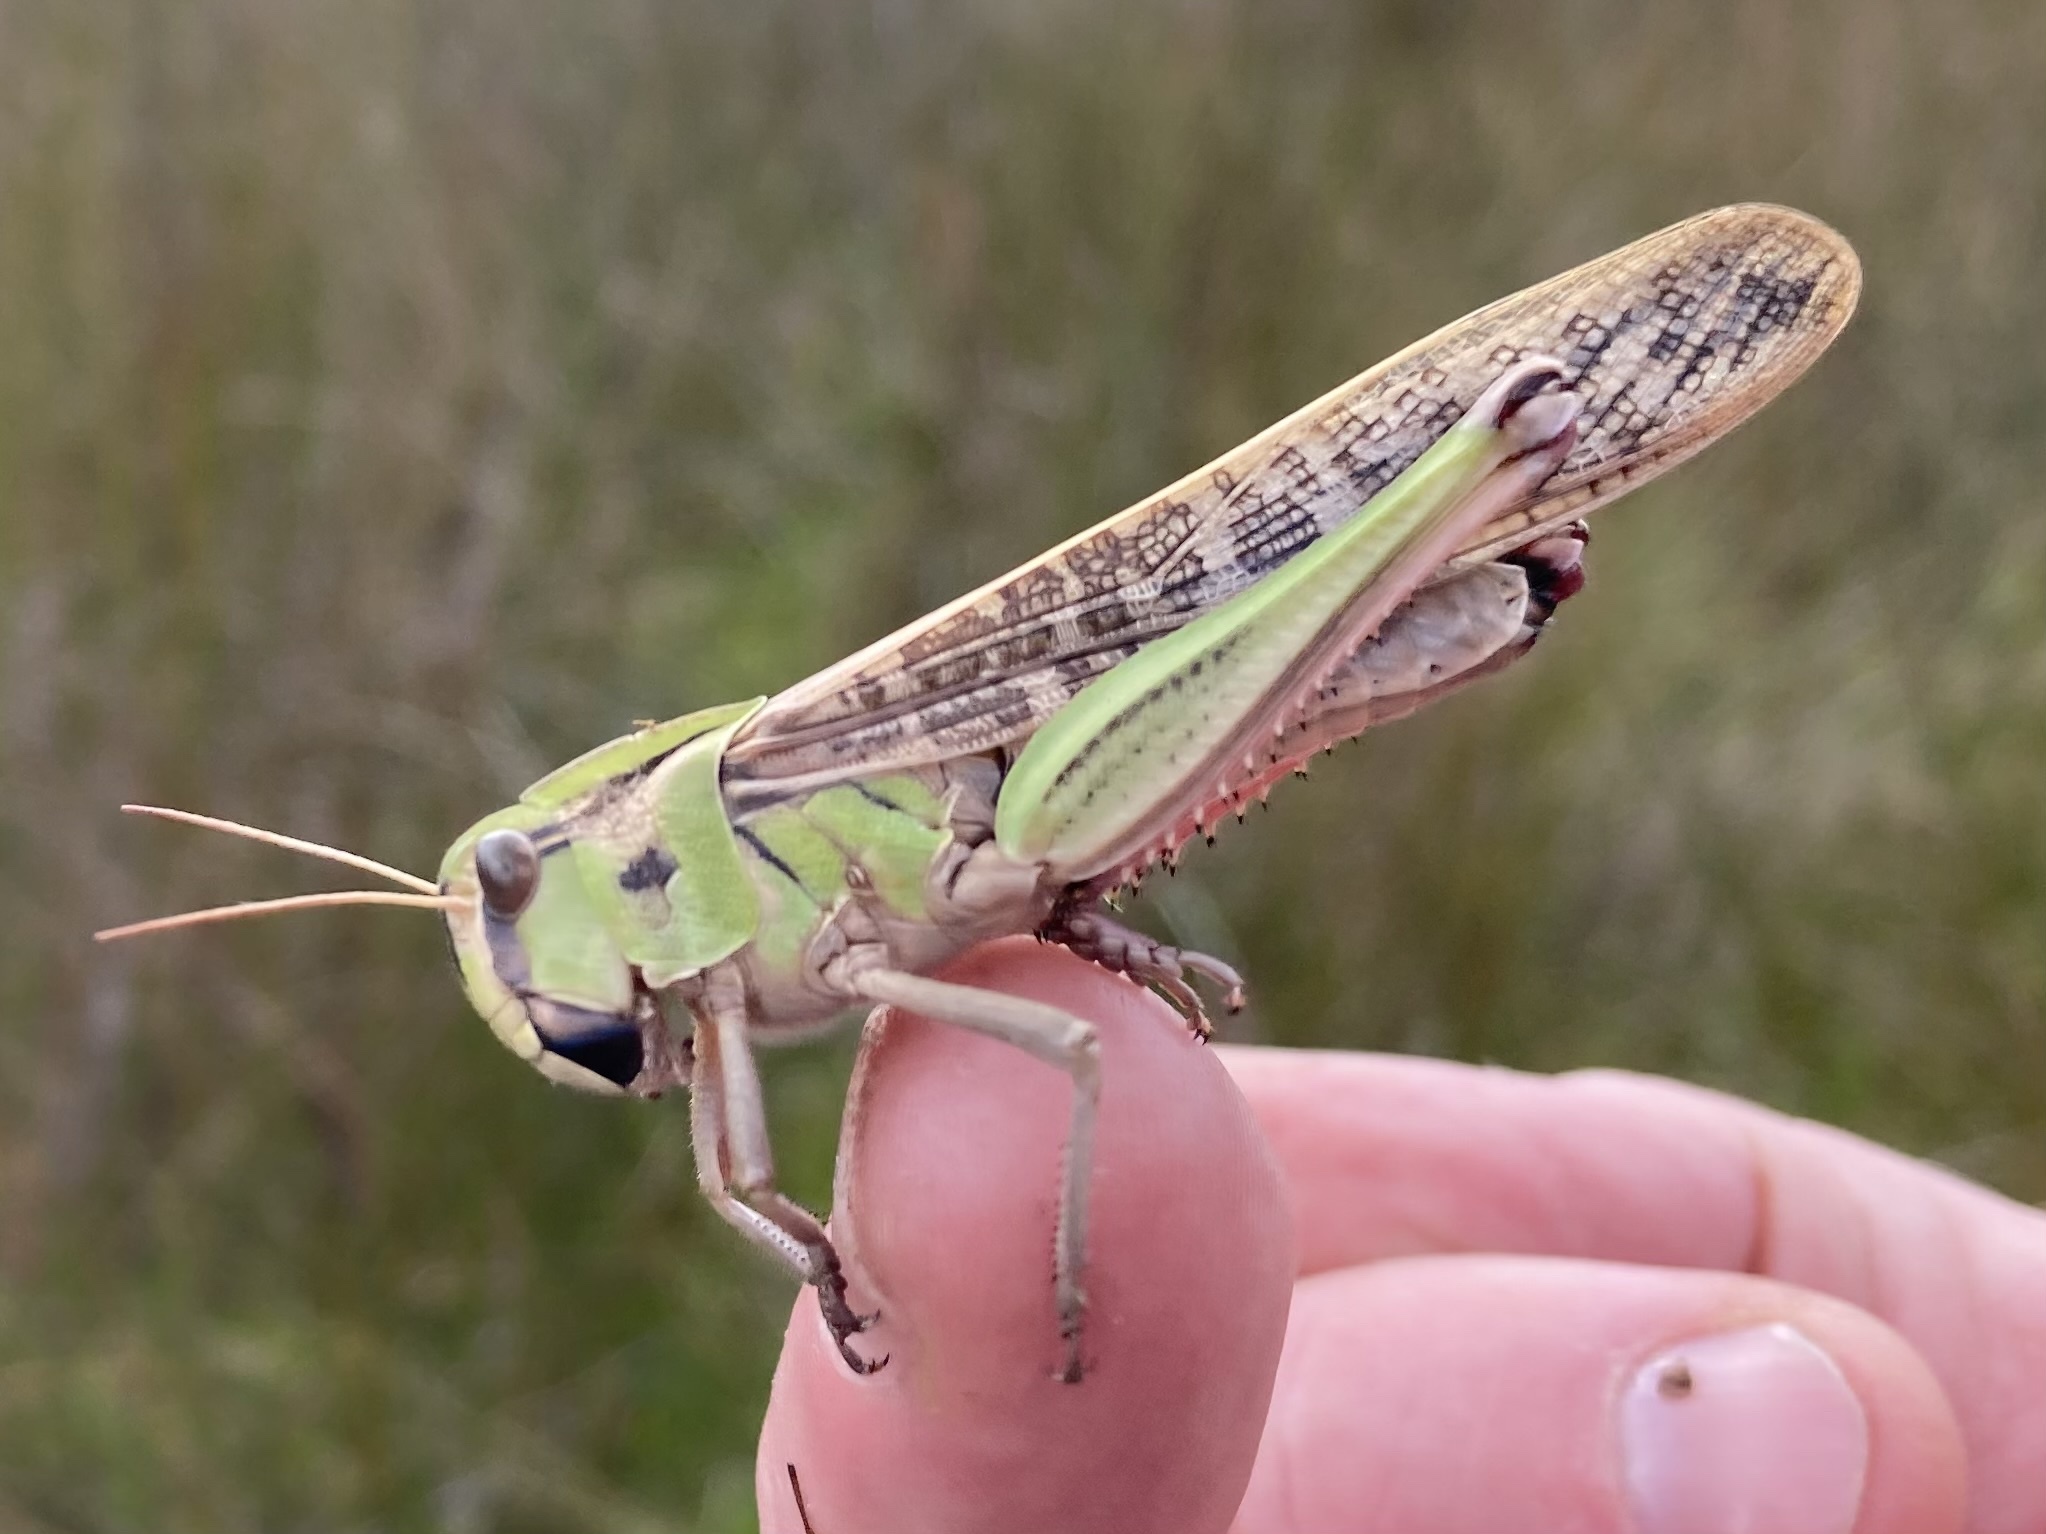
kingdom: Animalia
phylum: Arthropoda
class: Insecta
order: Orthoptera
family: Acrididae
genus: Locusta
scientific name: Locusta migratoria
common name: Migratory locust
